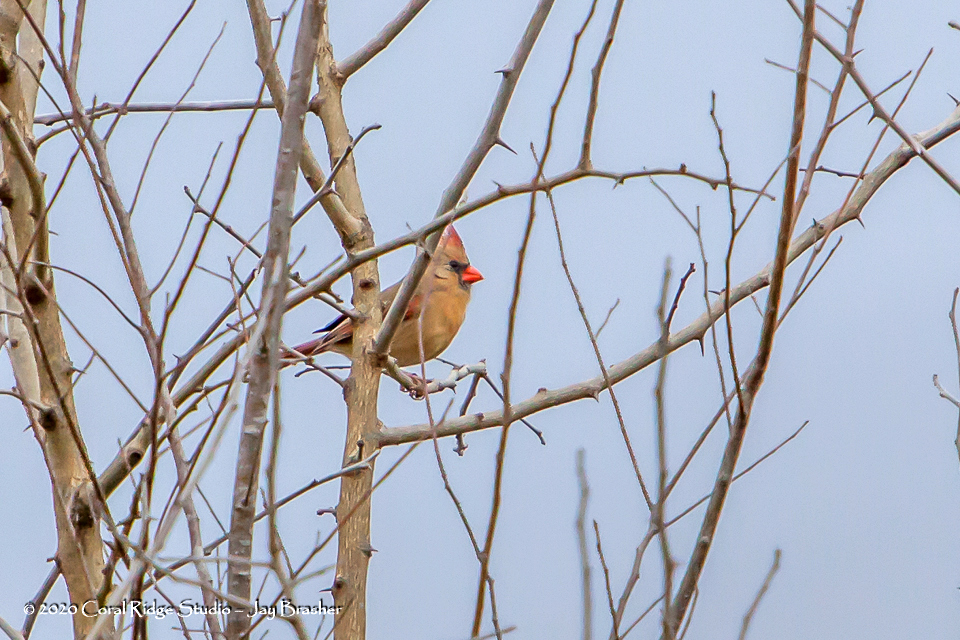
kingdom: Animalia
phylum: Chordata
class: Aves
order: Passeriformes
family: Cardinalidae
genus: Cardinalis
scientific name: Cardinalis cardinalis
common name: Northern cardinal
